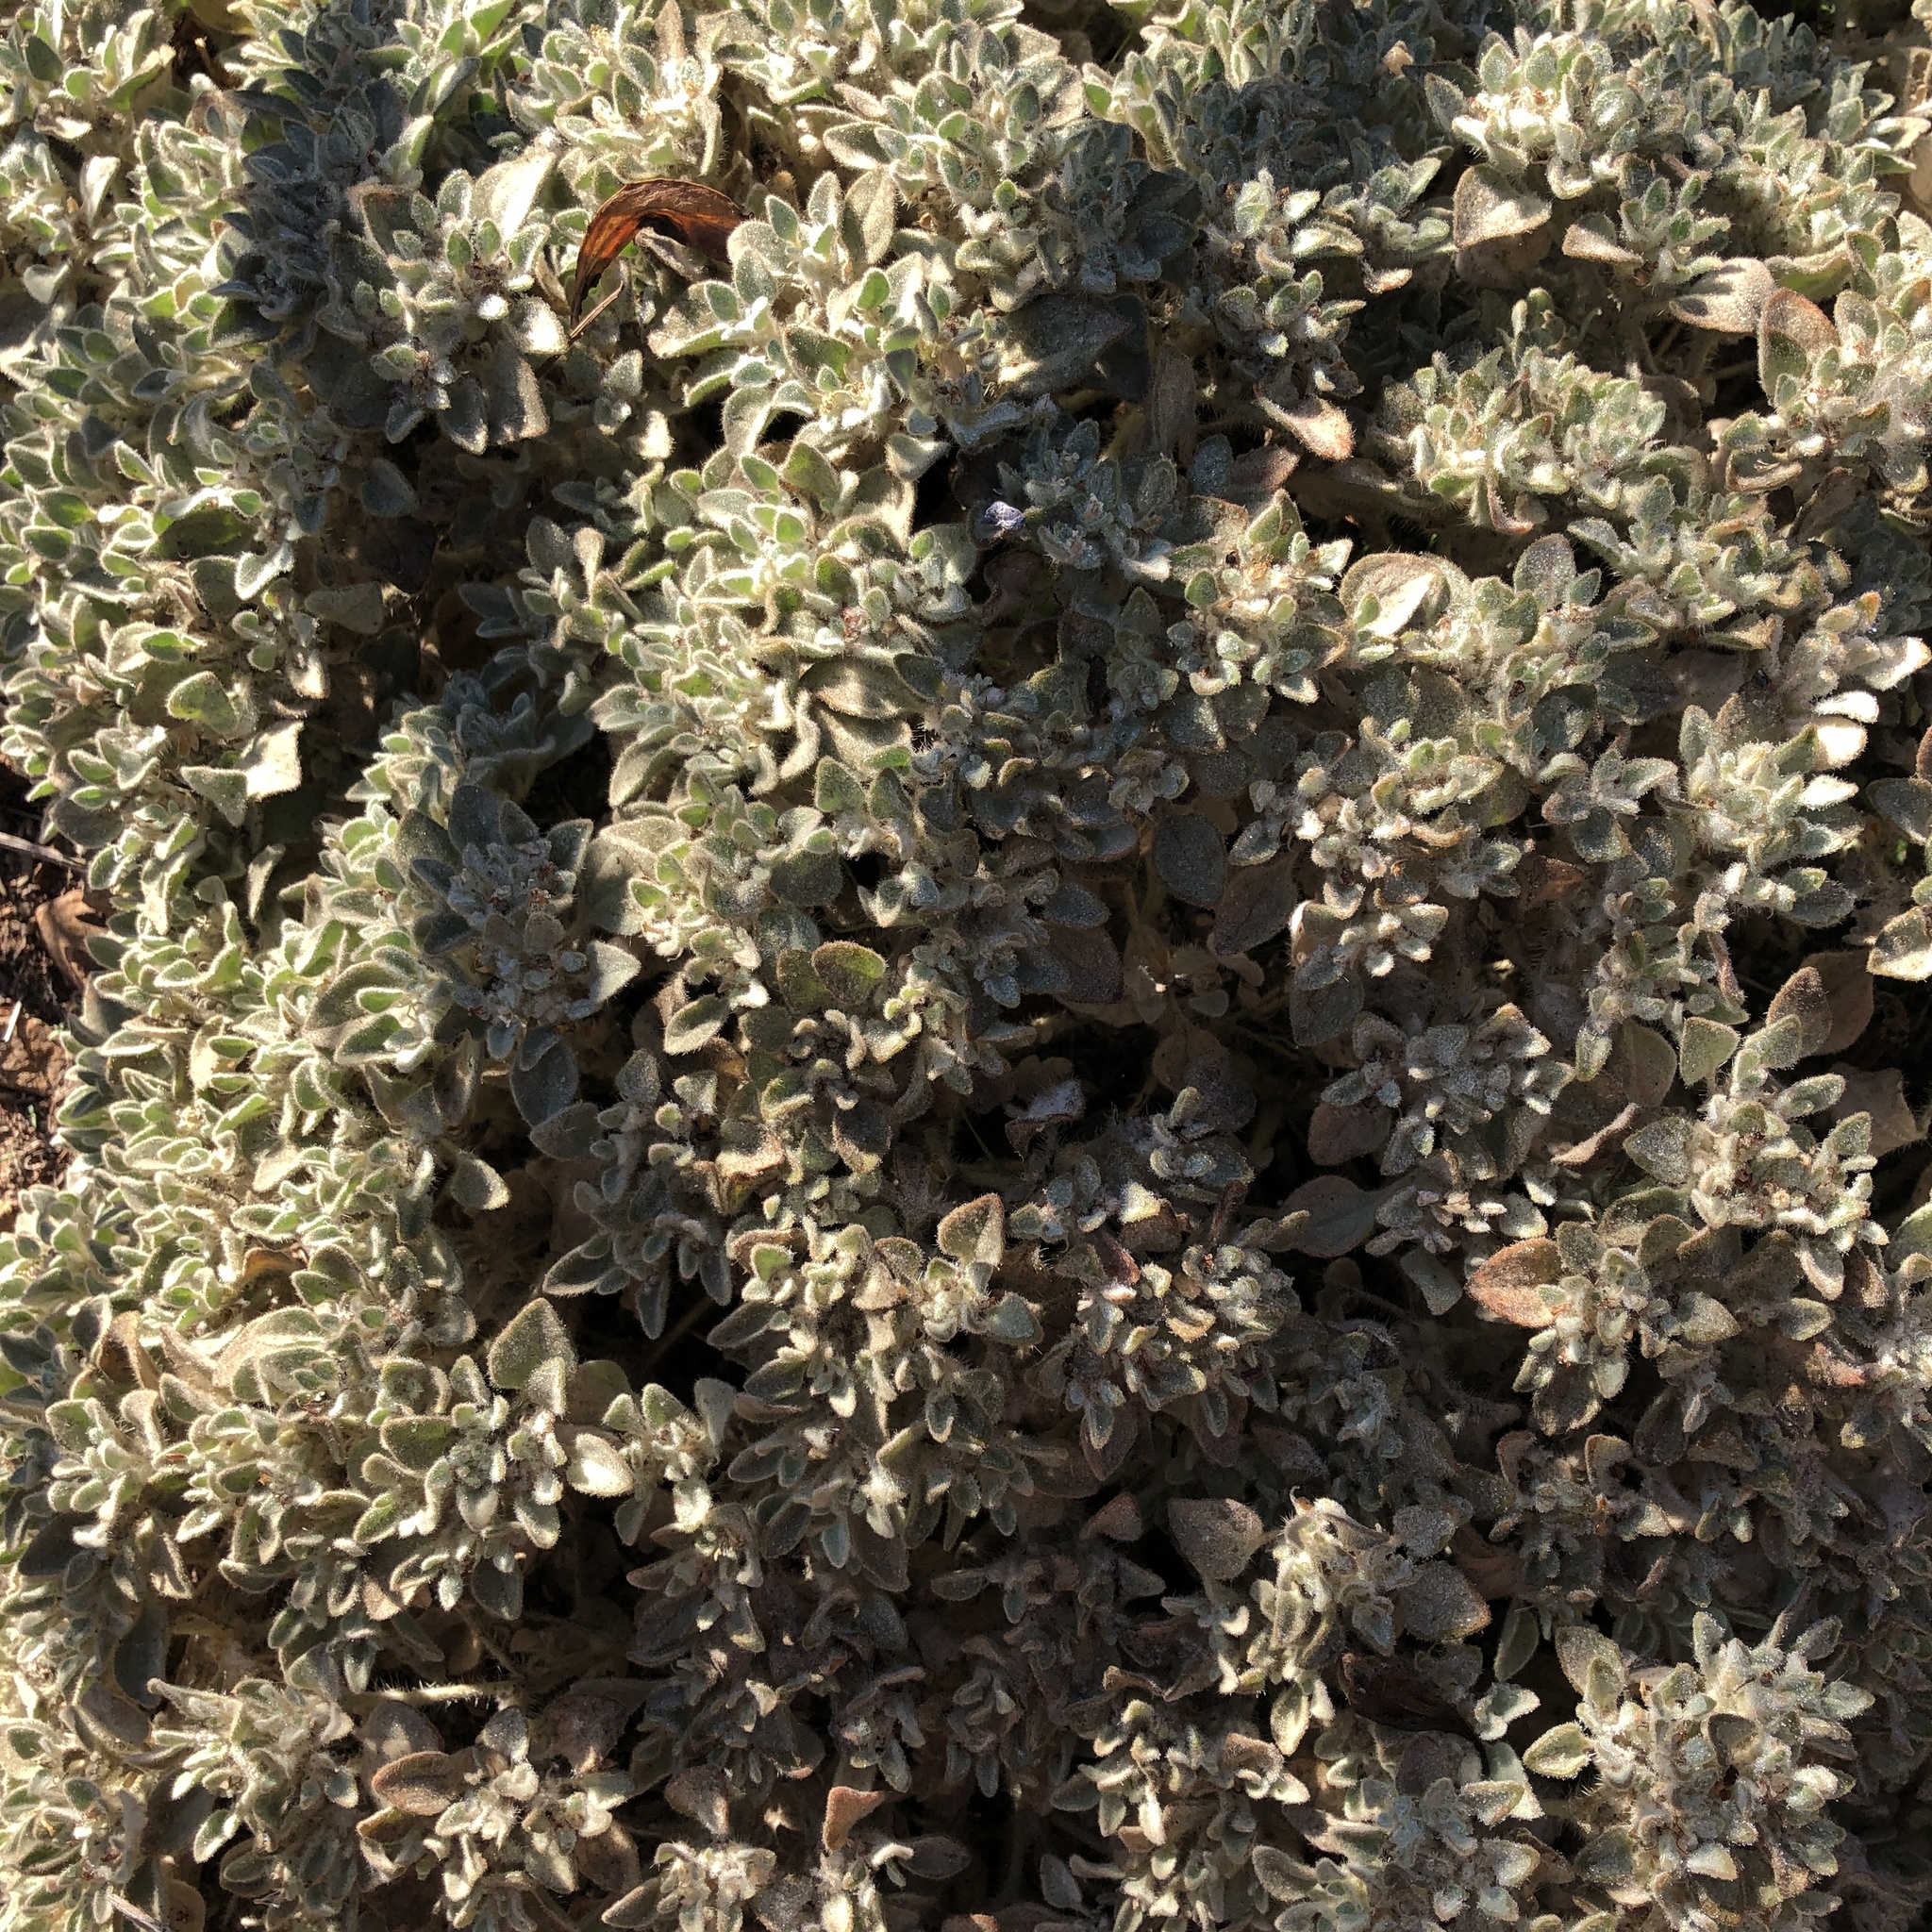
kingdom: Plantae
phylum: Tracheophyta
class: Magnoliopsida
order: Malpighiales
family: Euphorbiaceae
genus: Croton
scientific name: Croton setiger
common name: Dove weed
